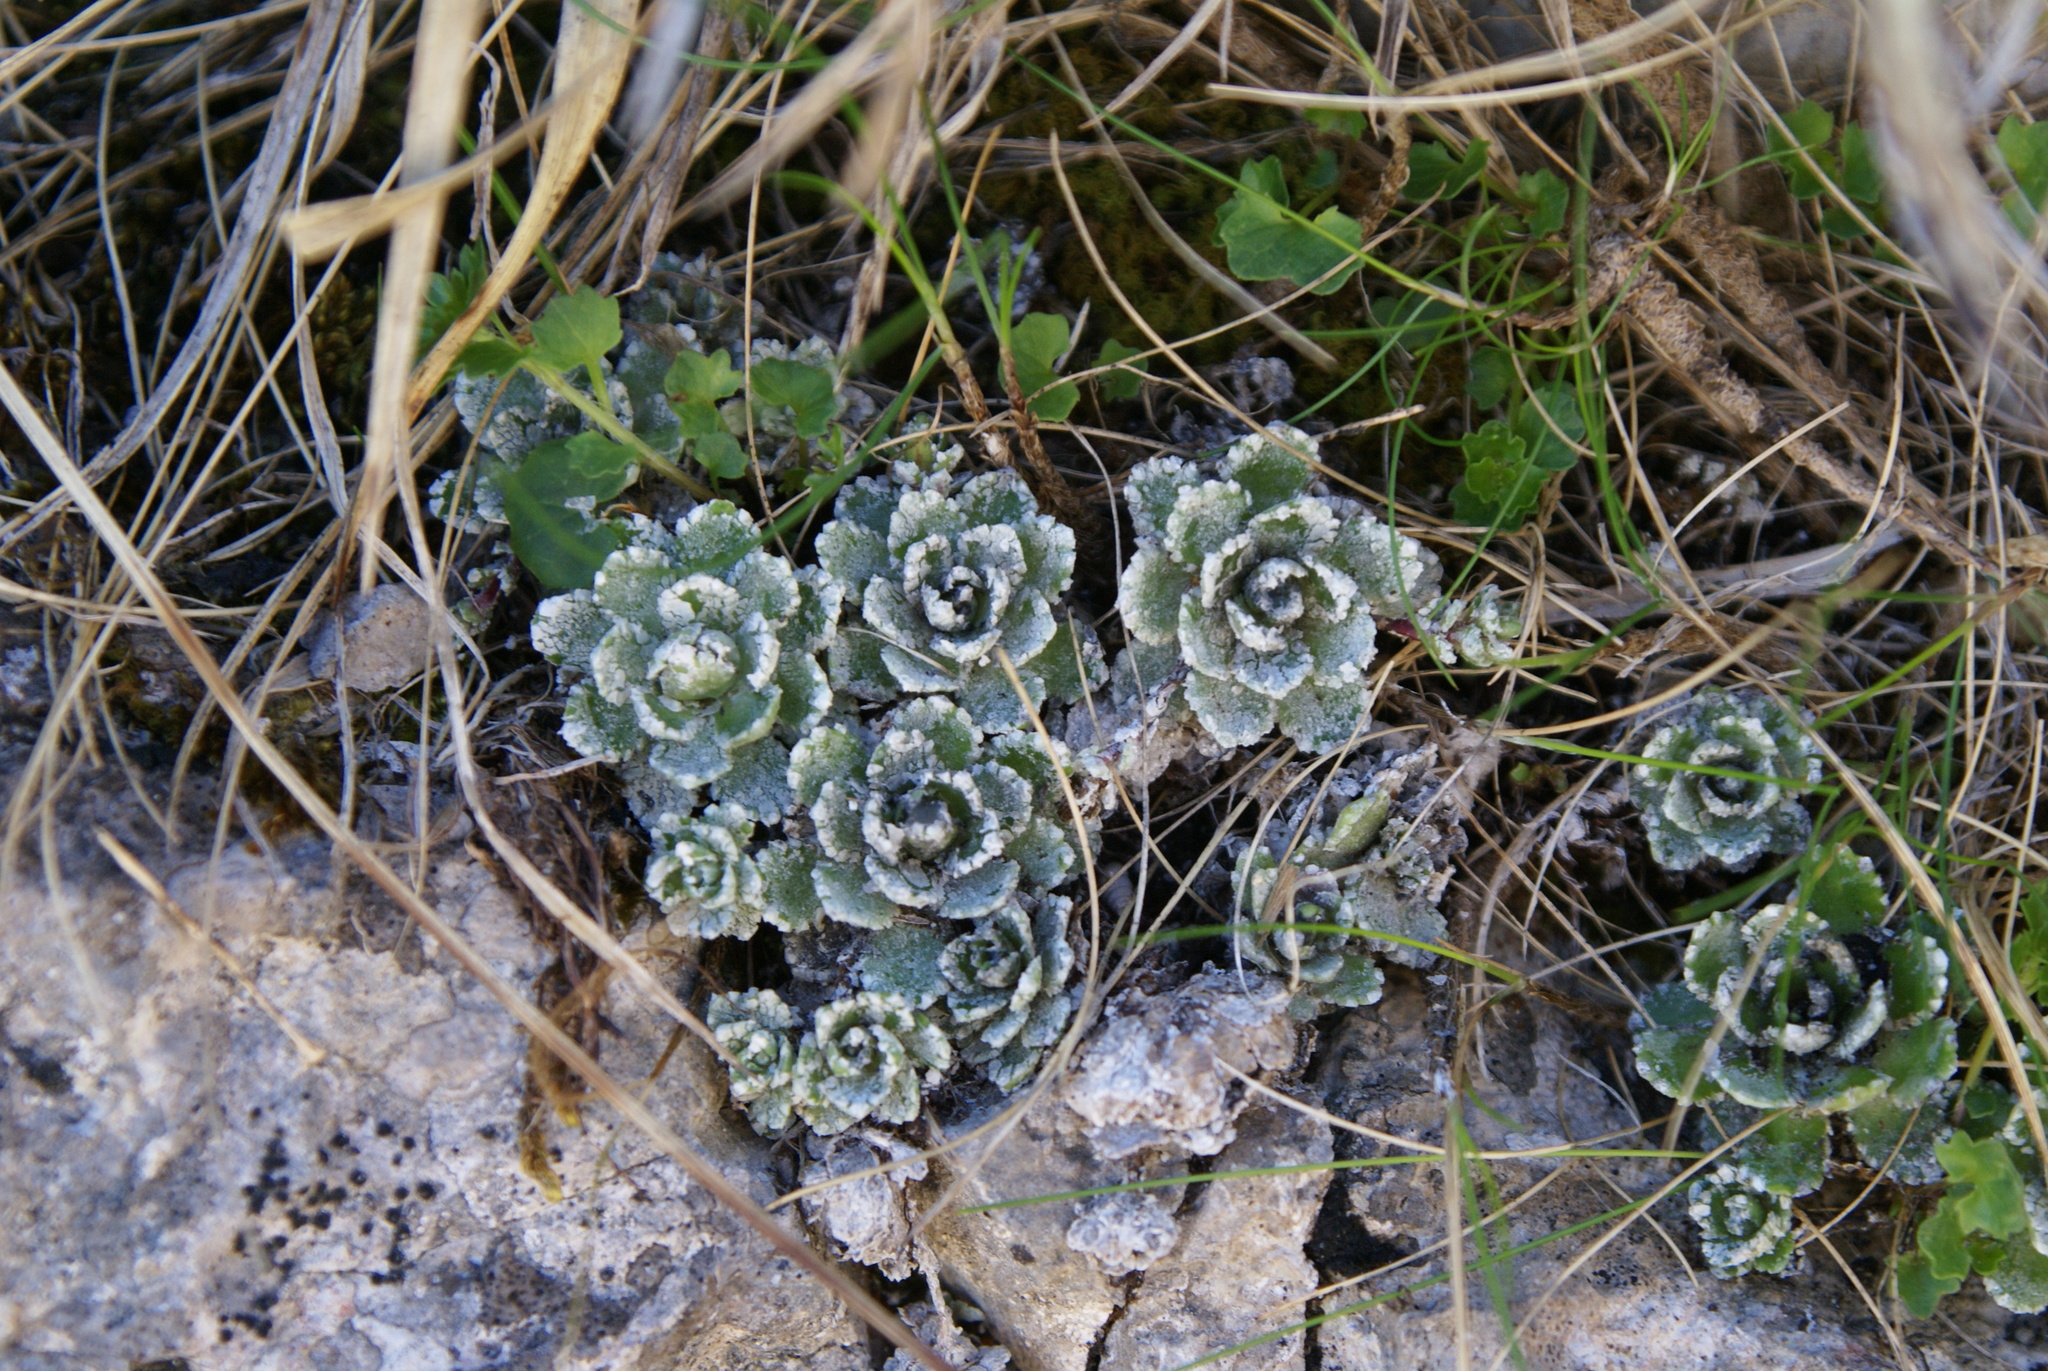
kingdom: Plantae
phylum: Tracheophyta
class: Magnoliopsida
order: Saxifragales
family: Saxifragaceae
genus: Saxifraga
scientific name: Saxifraga paniculata
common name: Livelong saxifrage
